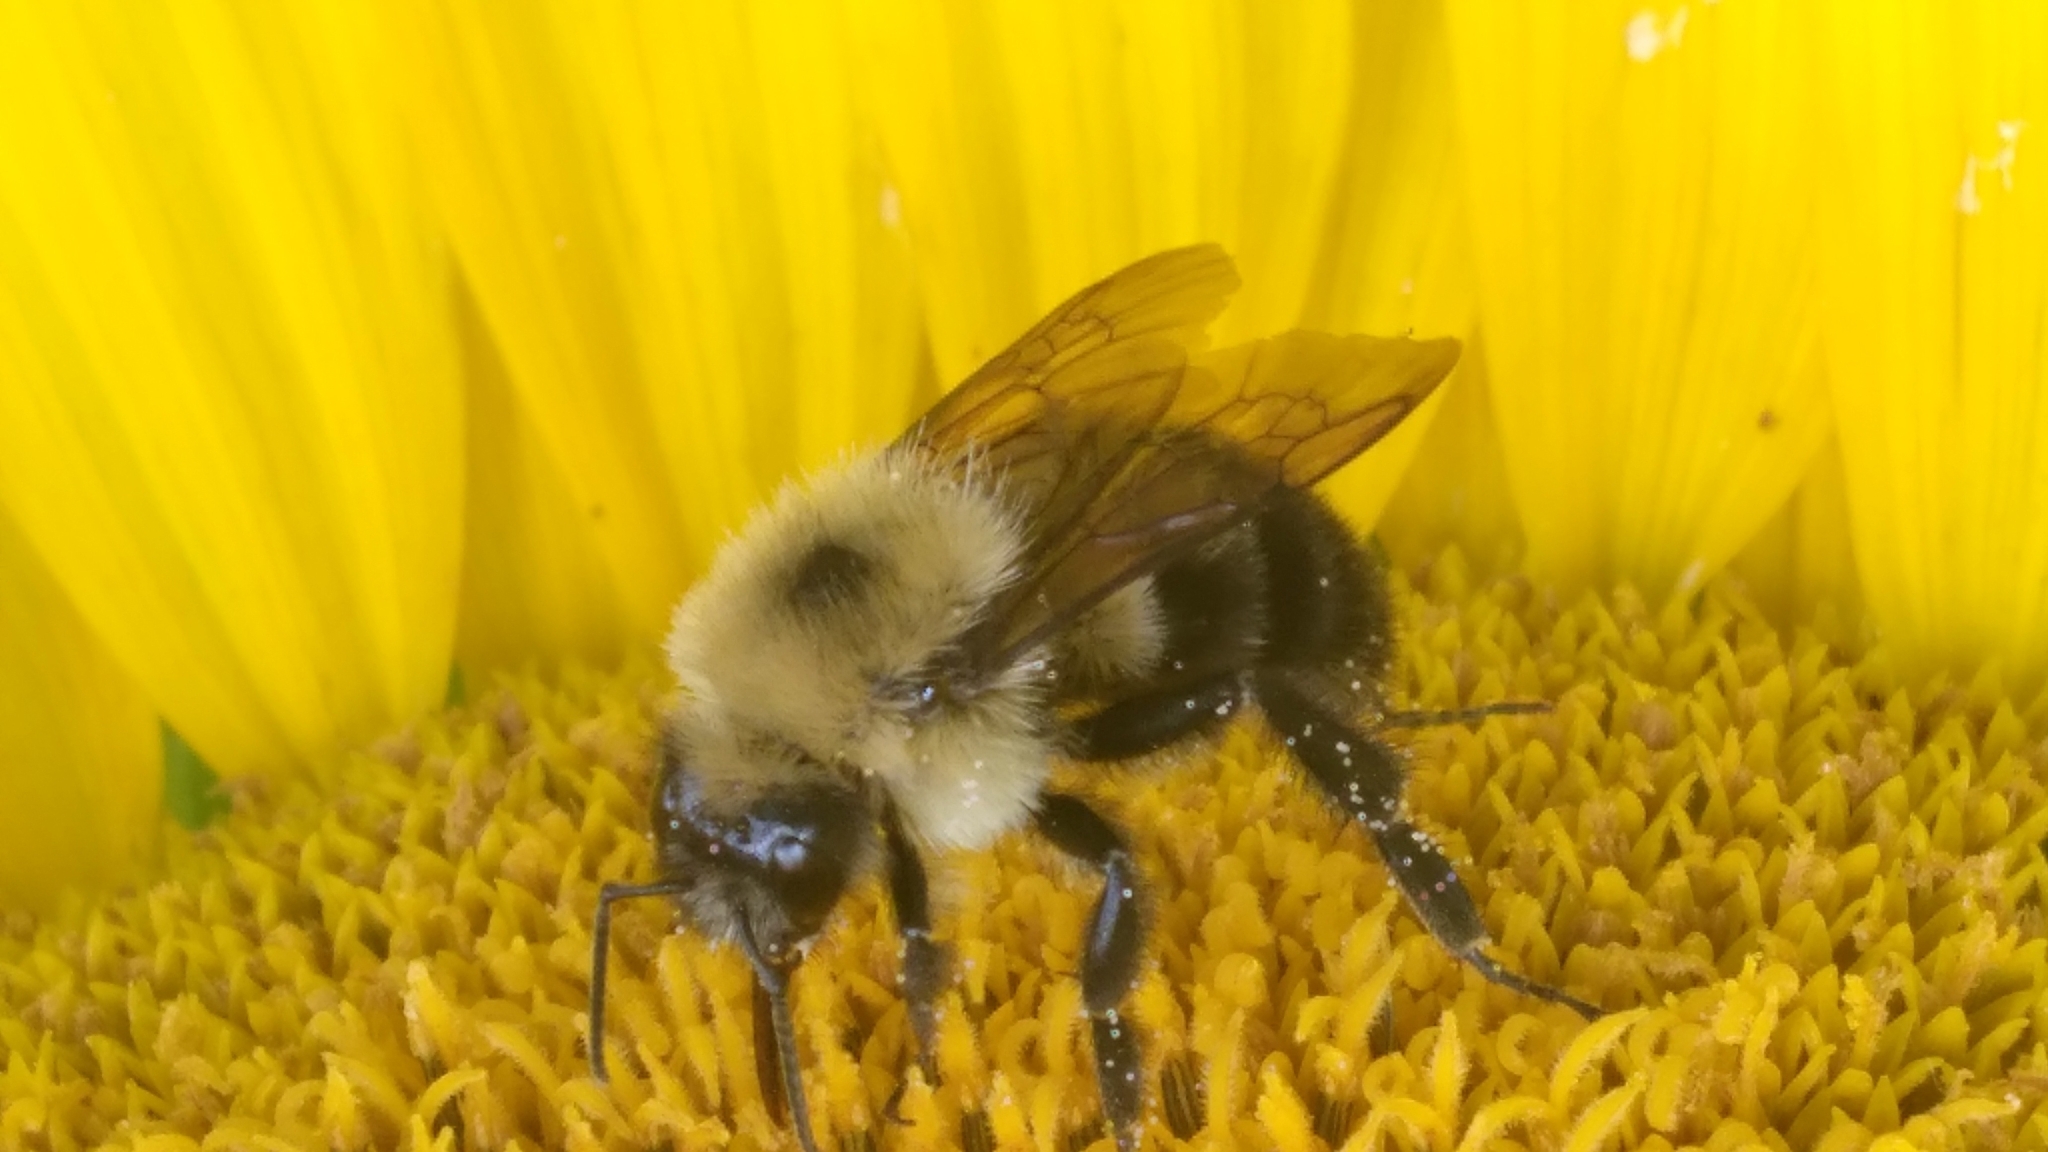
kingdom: Animalia
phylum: Arthropoda
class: Insecta
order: Hymenoptera
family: Apidae
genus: Bombus
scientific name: Bombus bimaculatus
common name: Two-spotted bumble bee
